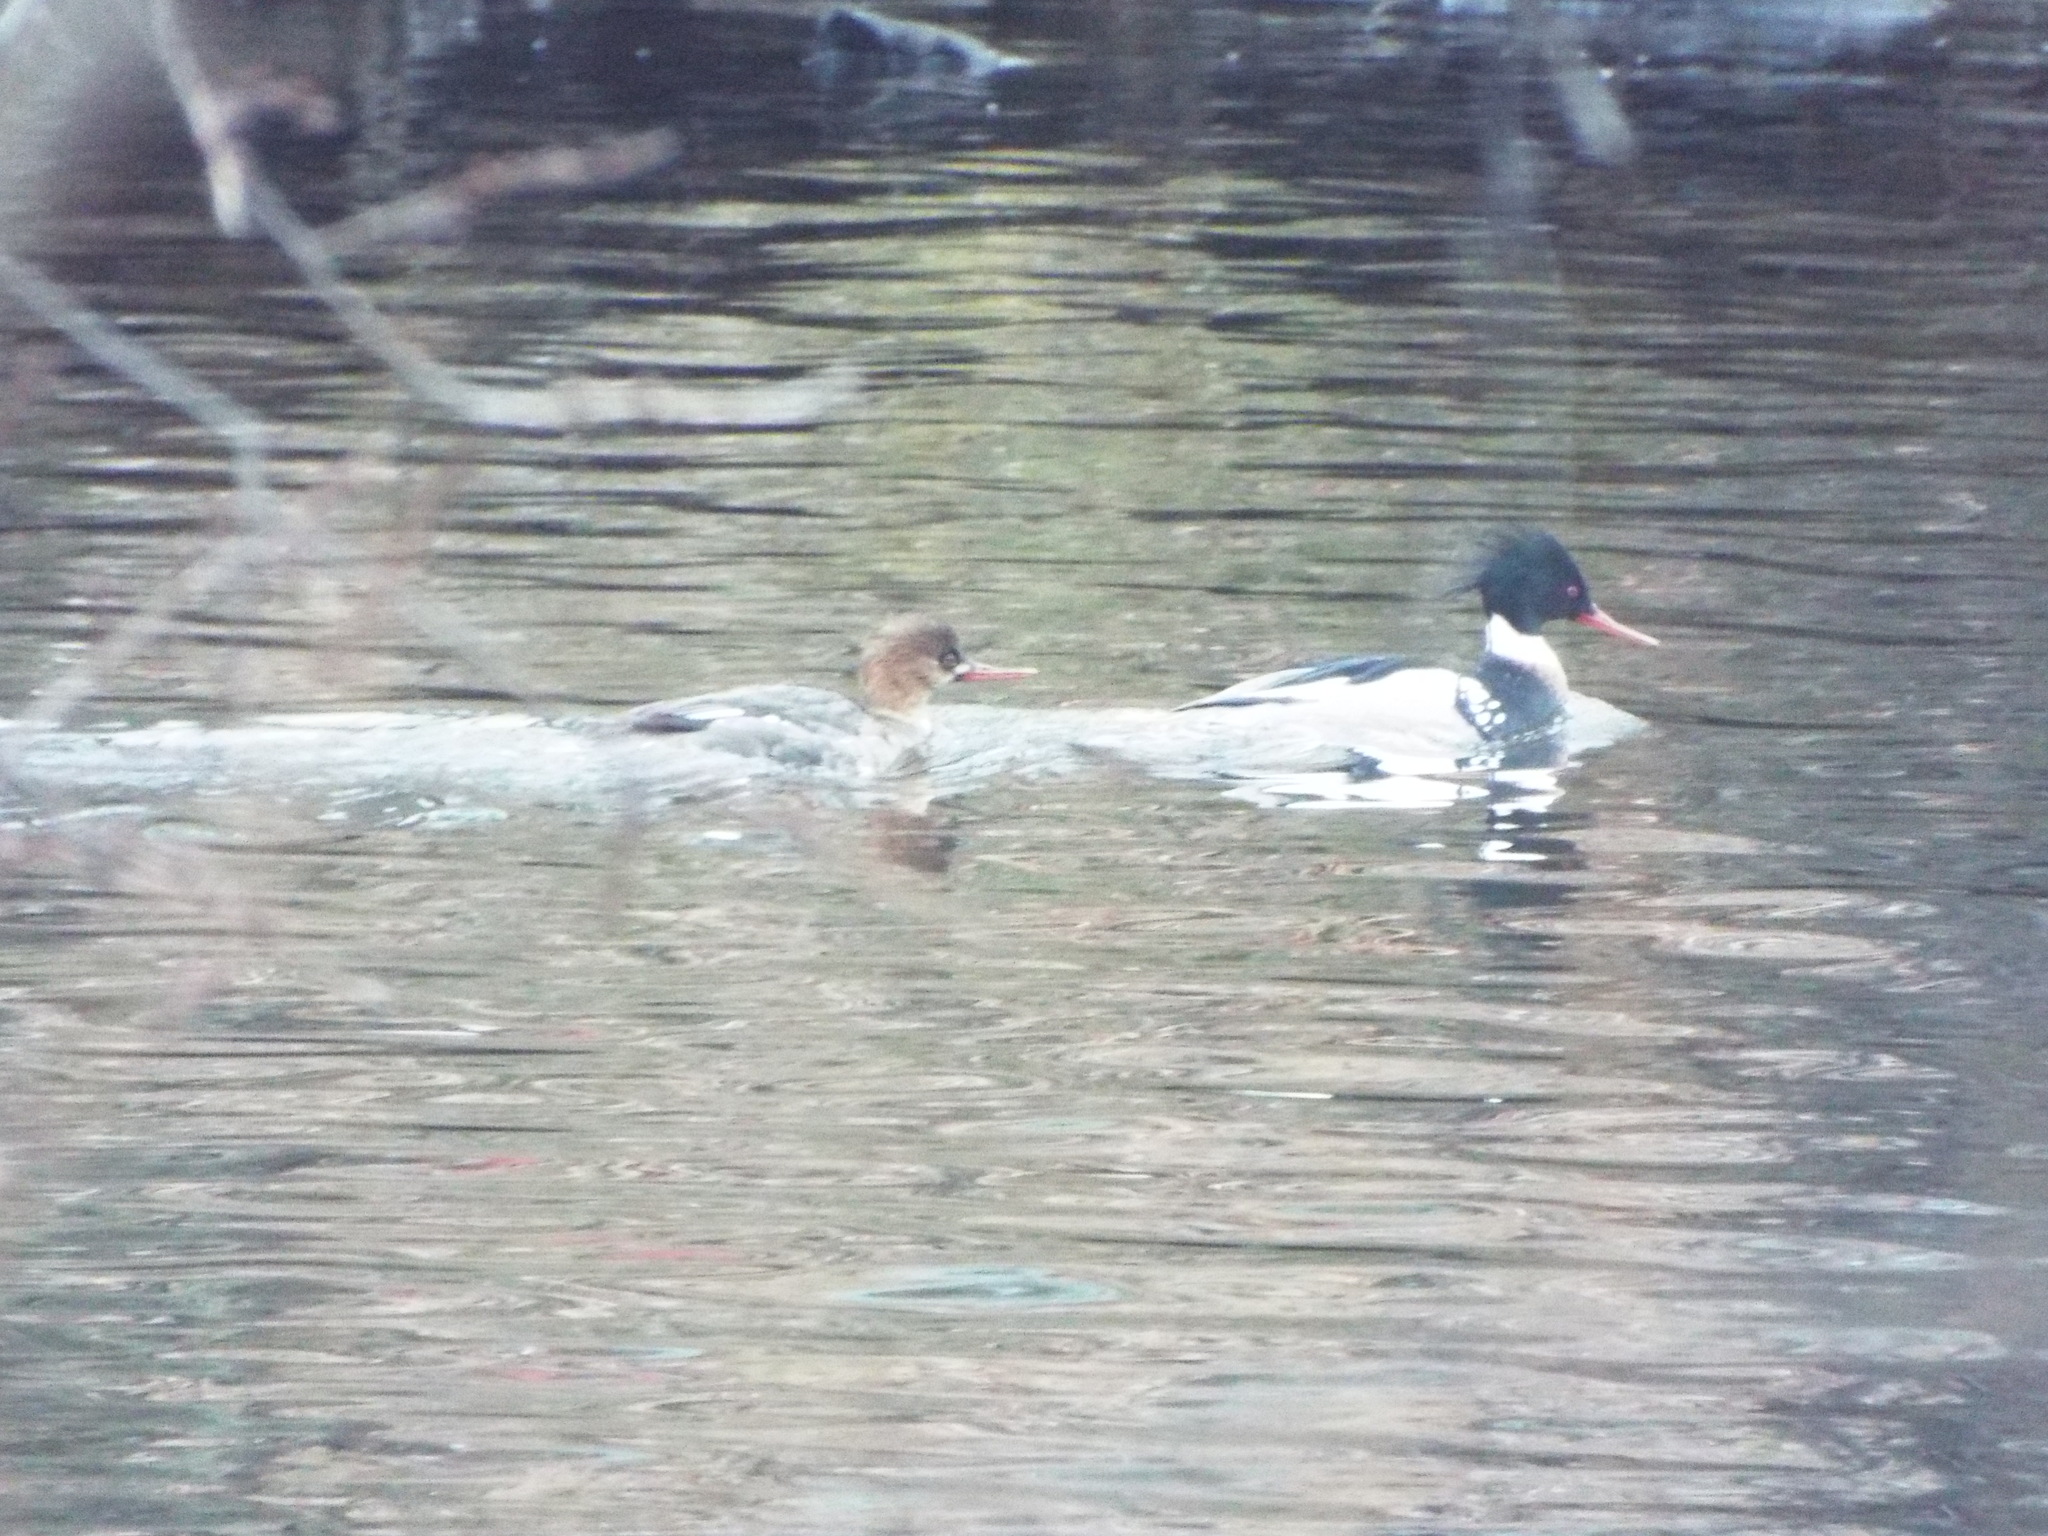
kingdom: Animalia
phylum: Chordata
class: Aves
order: Anseriformes
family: Anatidae
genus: Mergus
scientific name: Mergus serrator
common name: Red-breasted merganser
